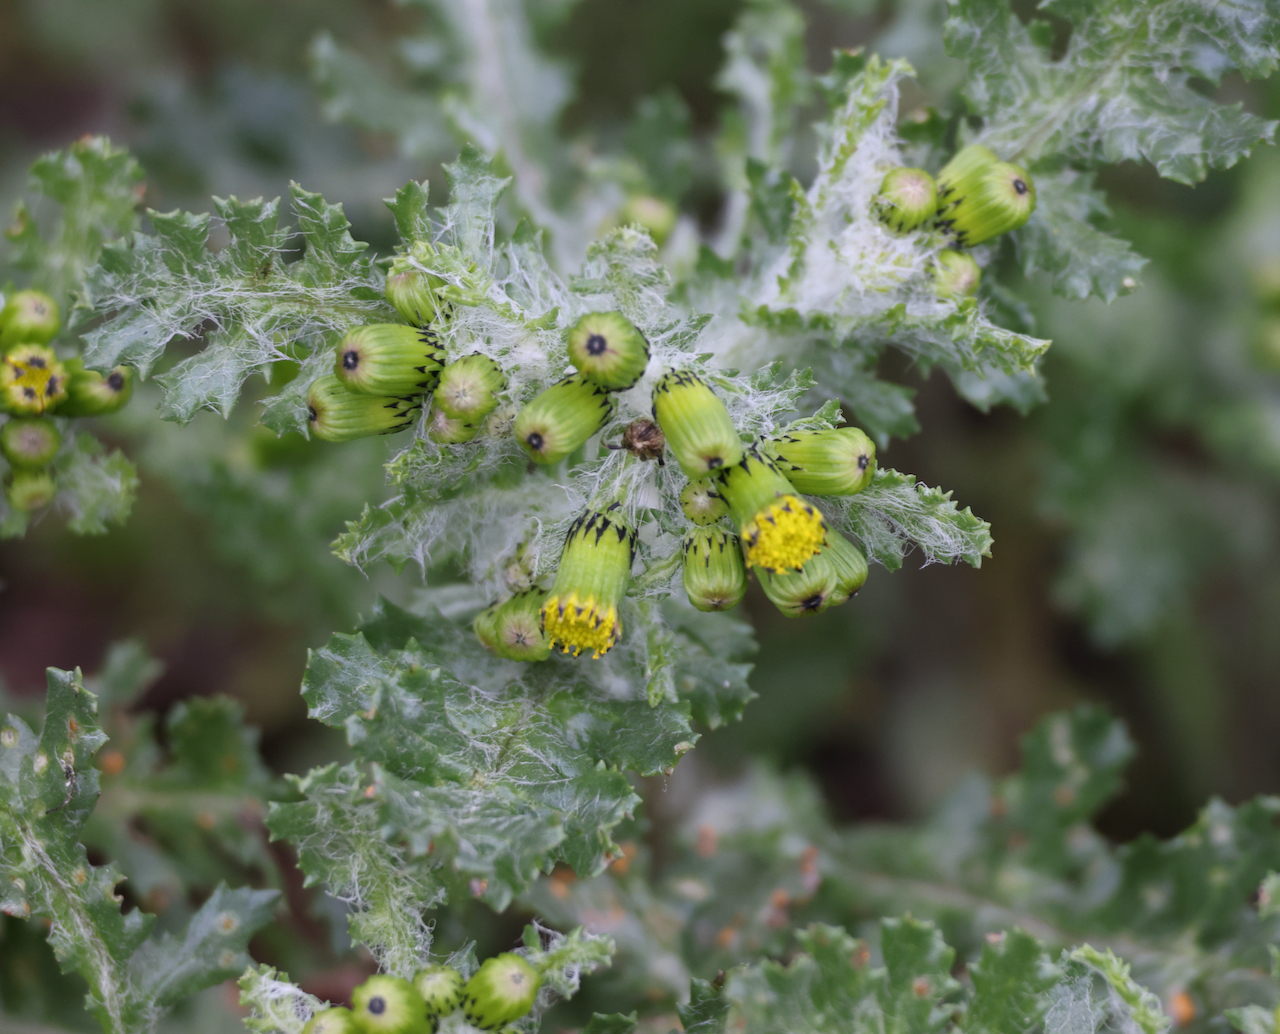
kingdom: Plantae
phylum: Tracheophyta
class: Magnoliopsida
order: Asterales
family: Asteraceae
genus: Senecio
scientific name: Senecio vulgaris
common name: Old-man-in-the-spring
